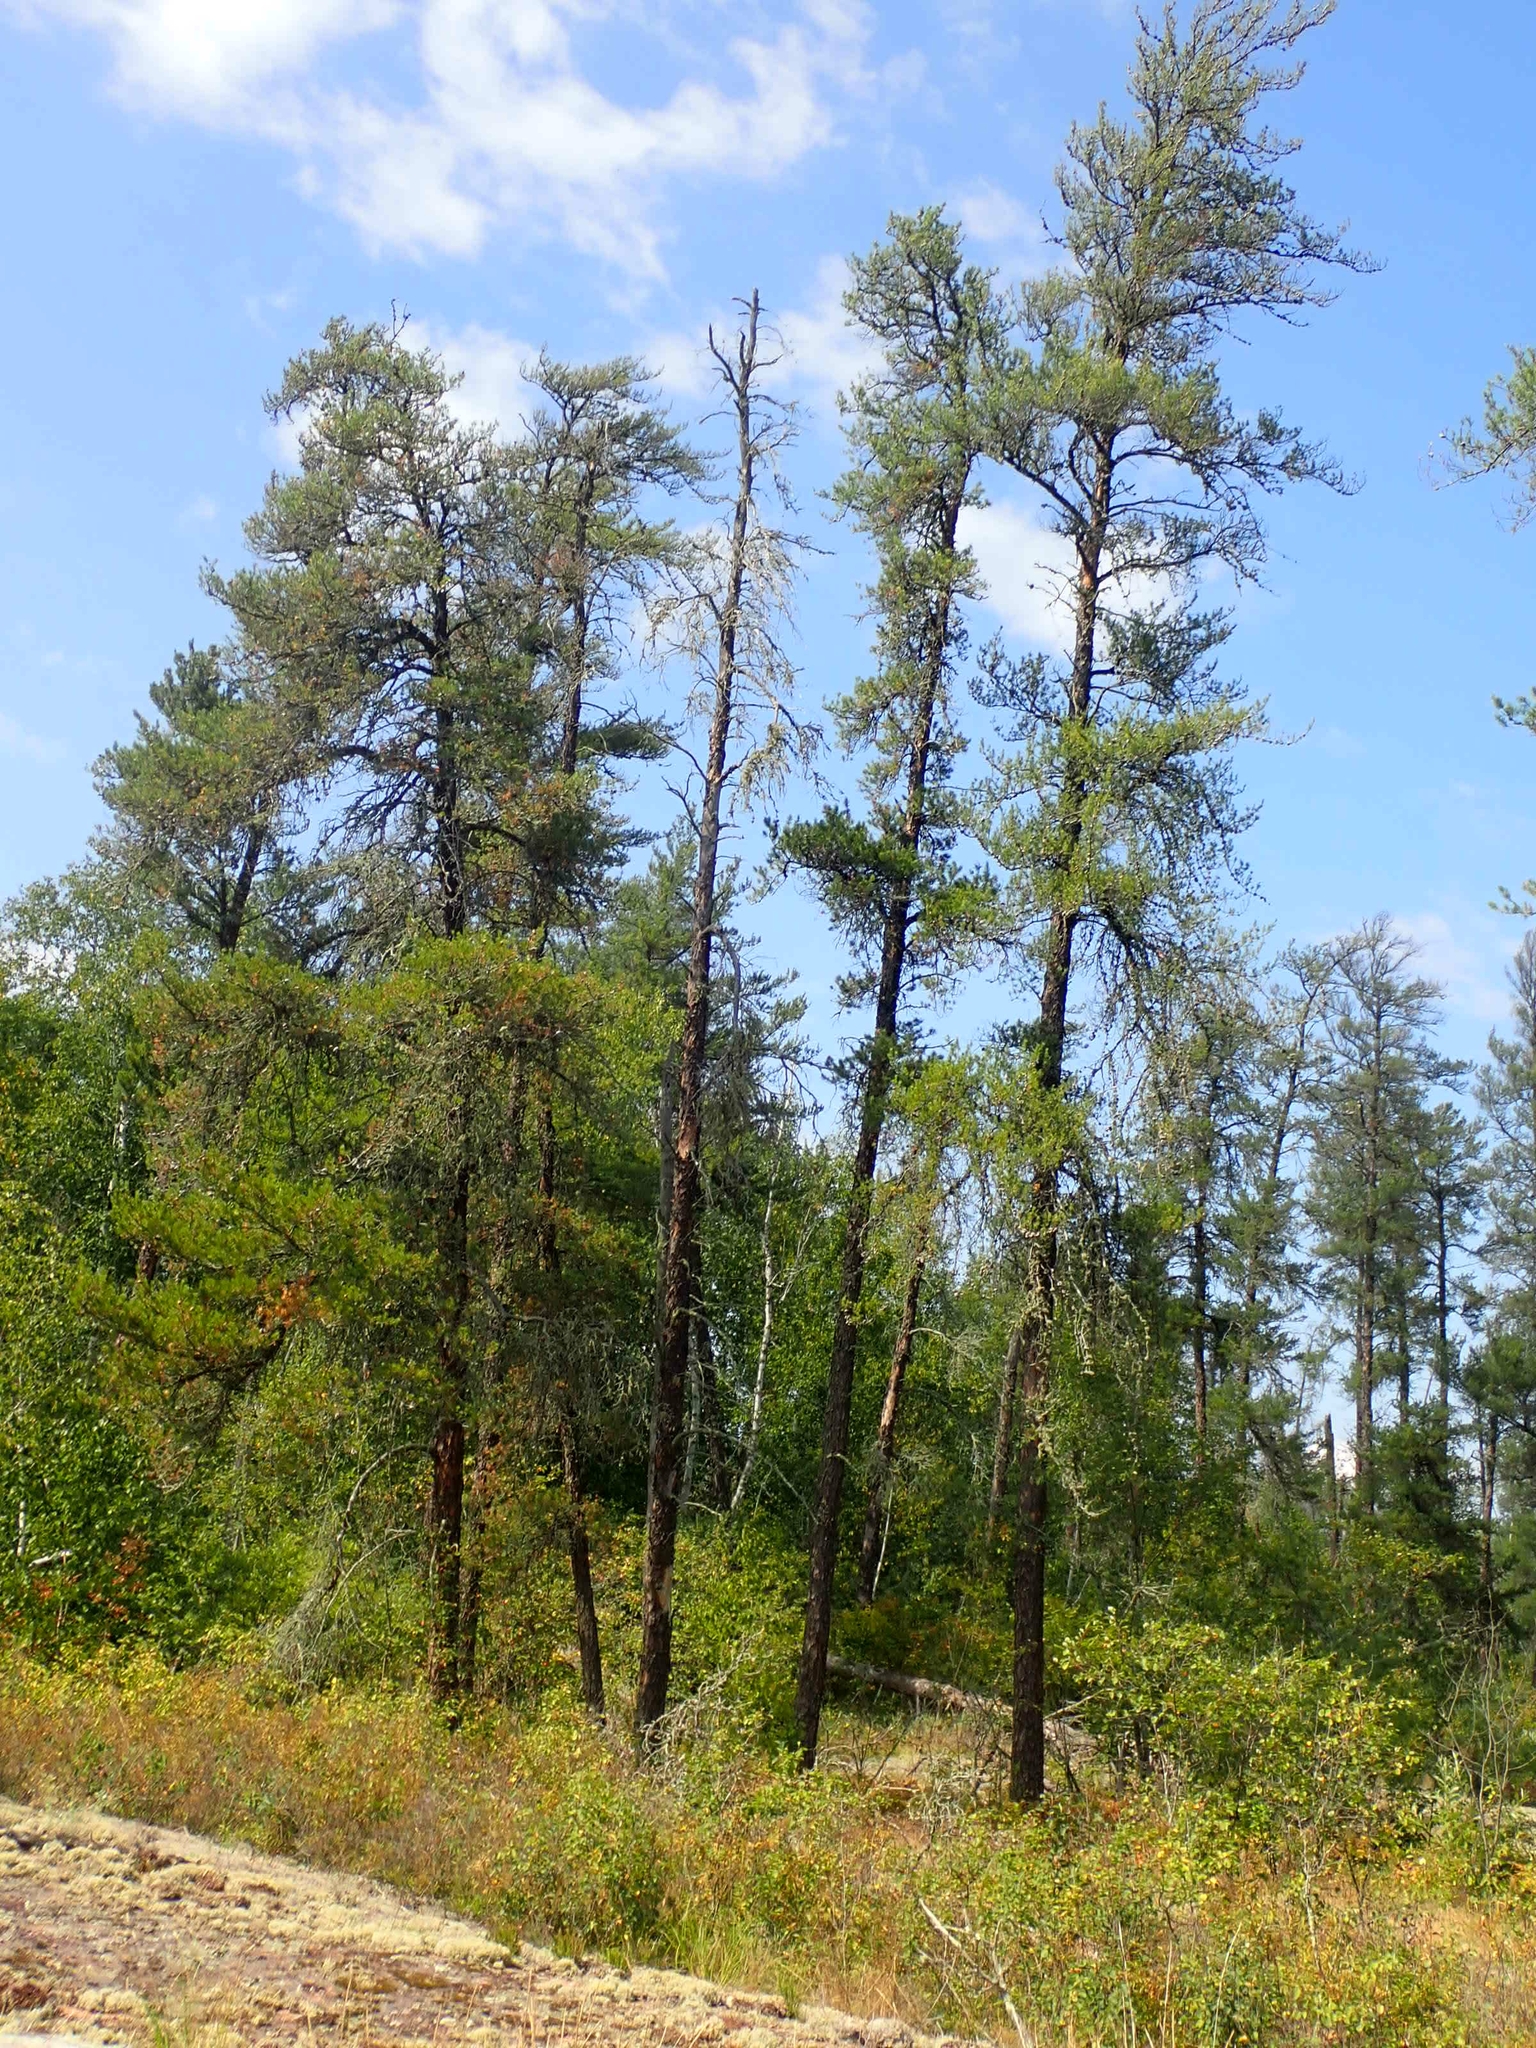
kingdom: Plantae
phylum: Tracheophyta
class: Pinopsida
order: Pinales
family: Pinaceae
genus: Pinus
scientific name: Pinus banksiana
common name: Jack pine
